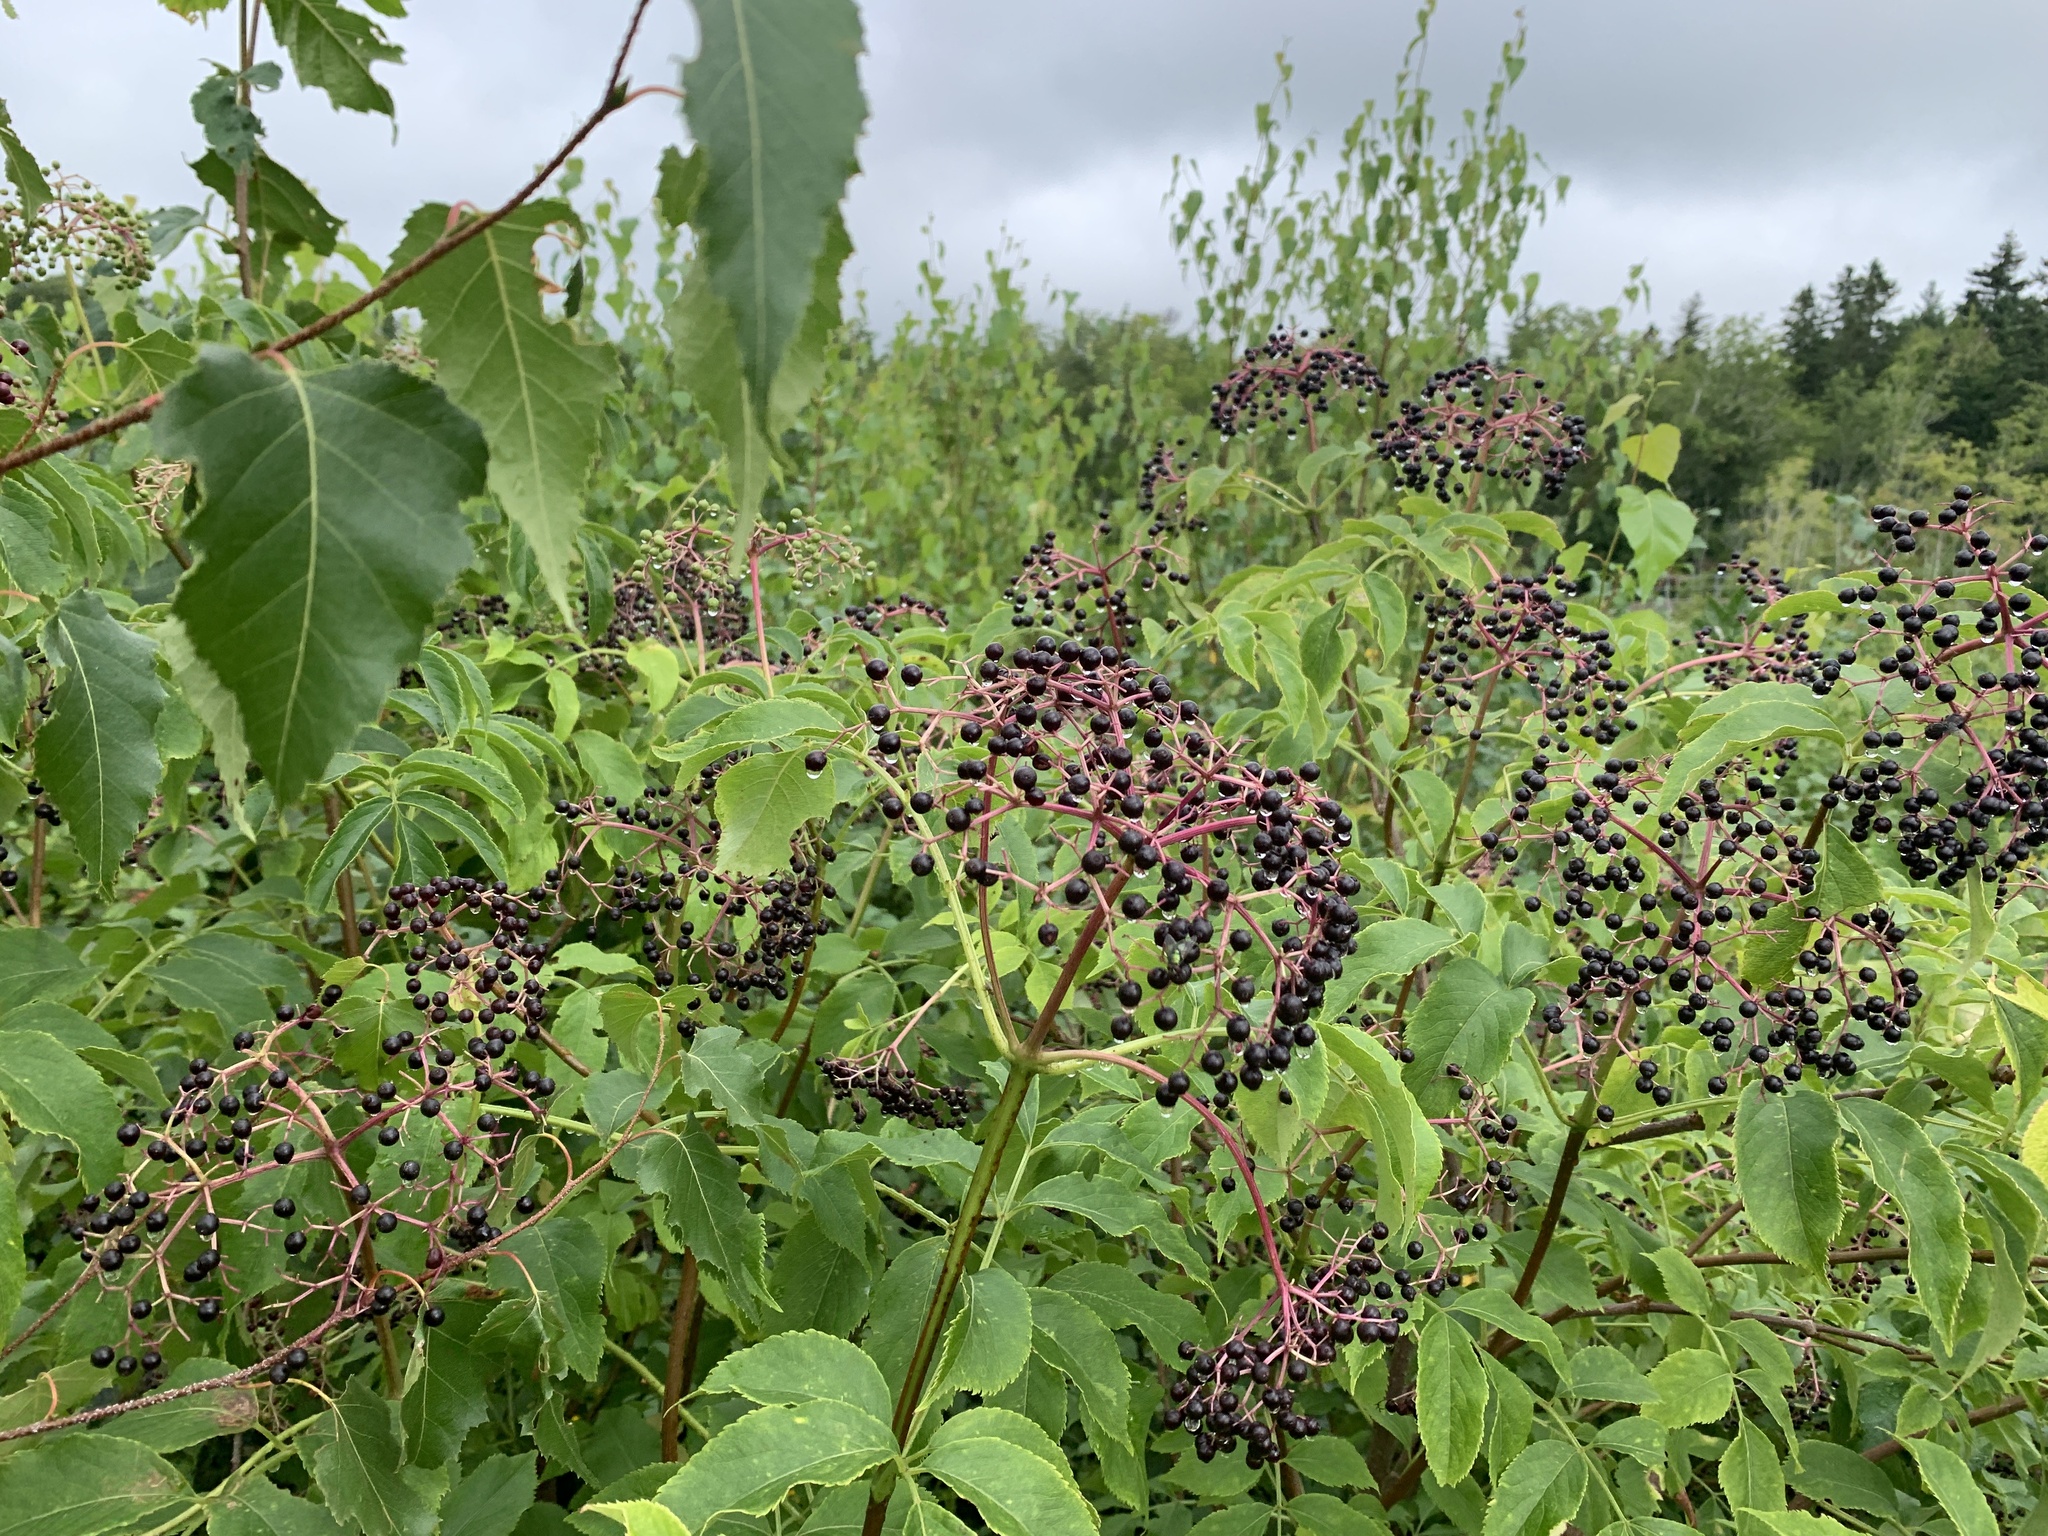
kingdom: Plantae
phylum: Tracheophyta
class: Magnoliopsida
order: Dipsacales
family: Viburnaceae
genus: Sambucus
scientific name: Sambucus canadensis
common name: American elder
